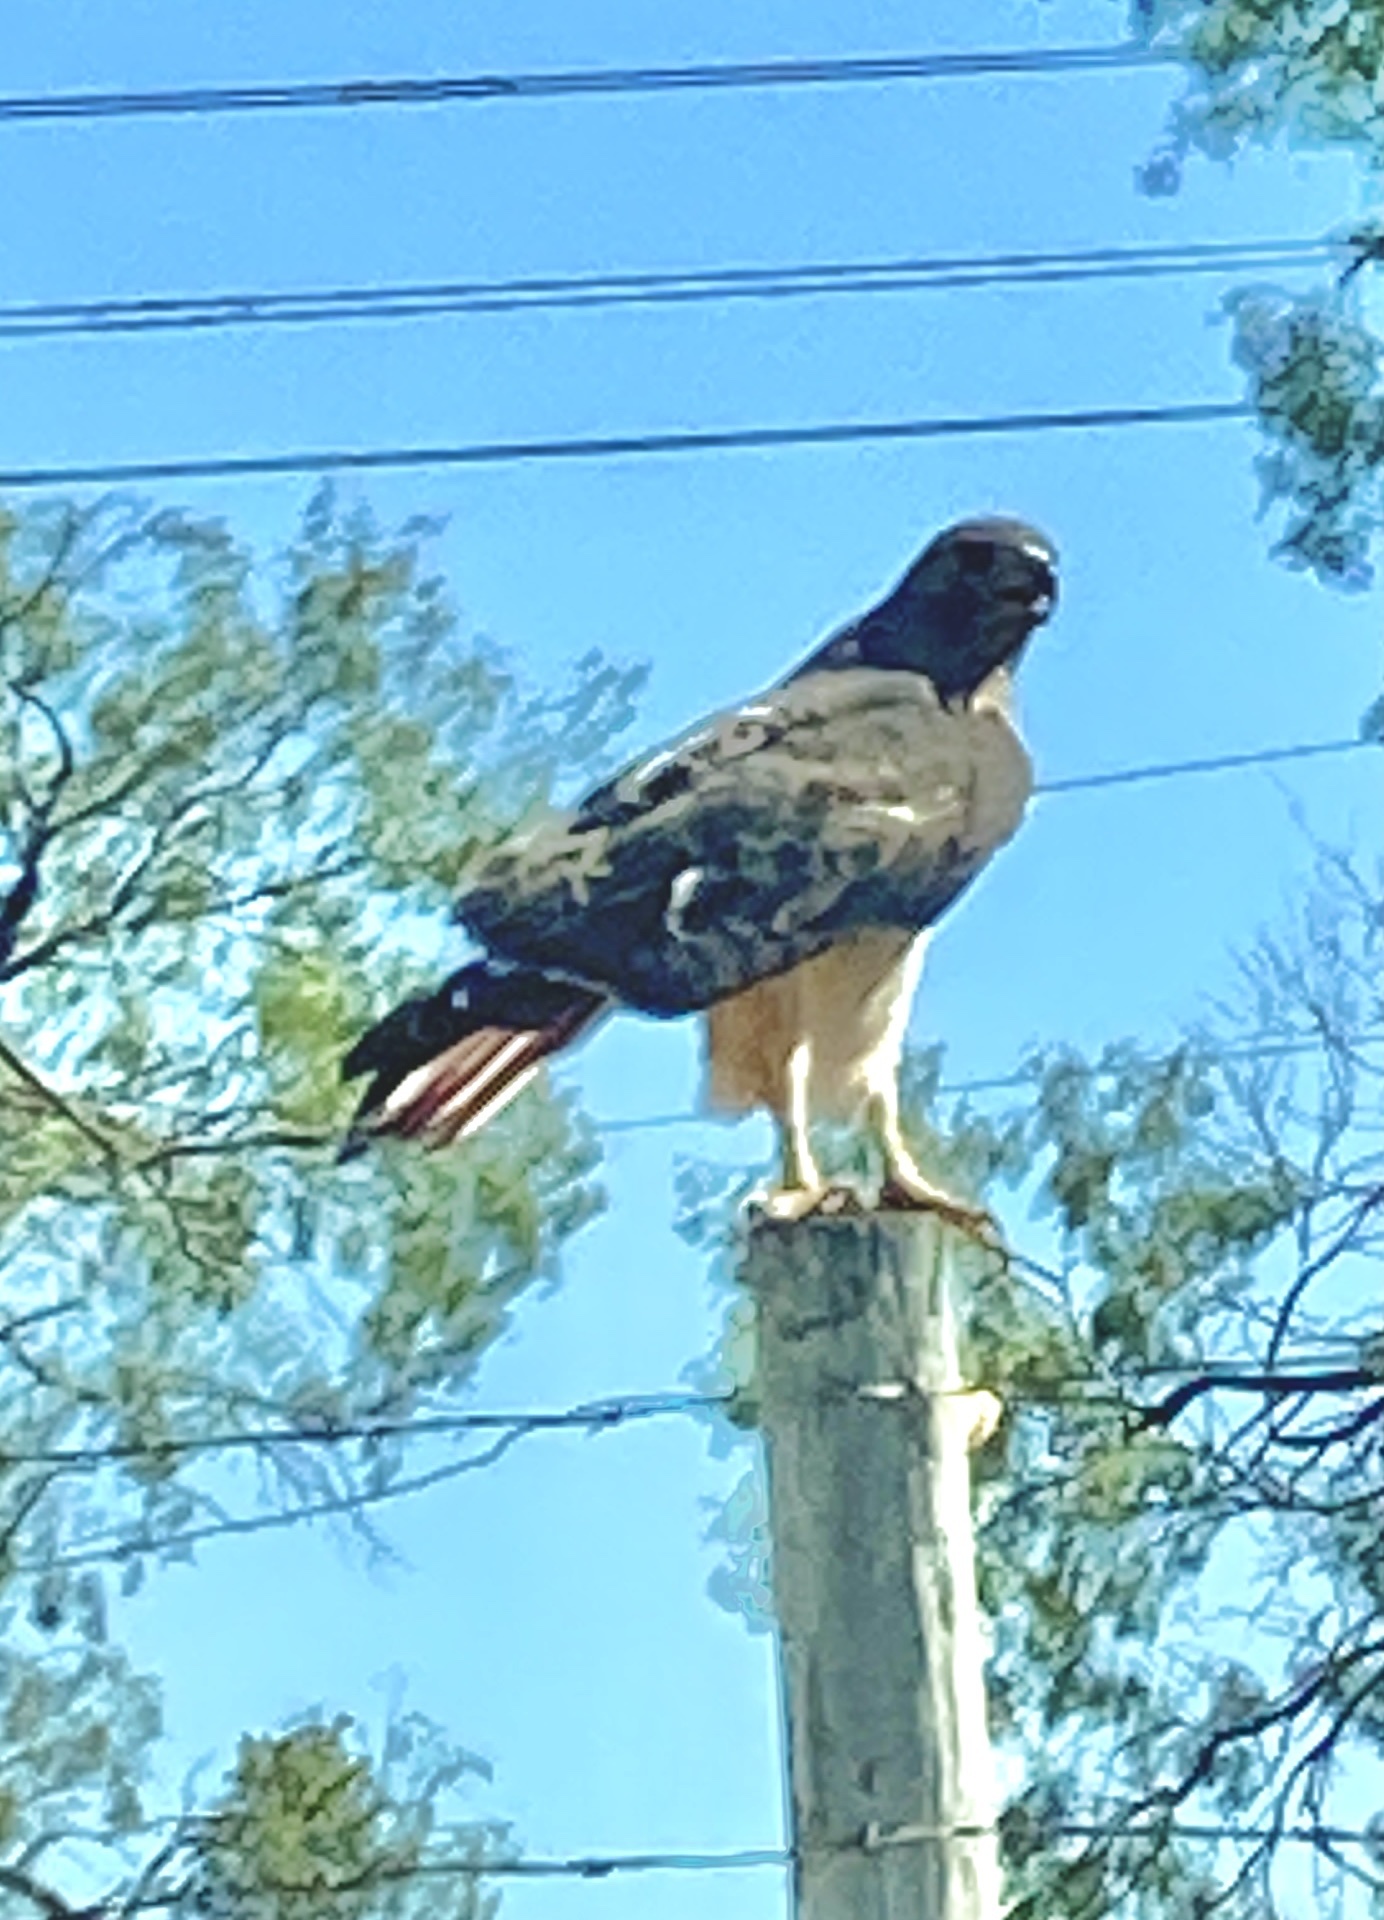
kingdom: Animalia
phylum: Chordata
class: Aves
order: Accipitriformes
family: Accipitridae
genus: Buteo
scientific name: Buteo jamaicensis
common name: Red-tailed hawk
